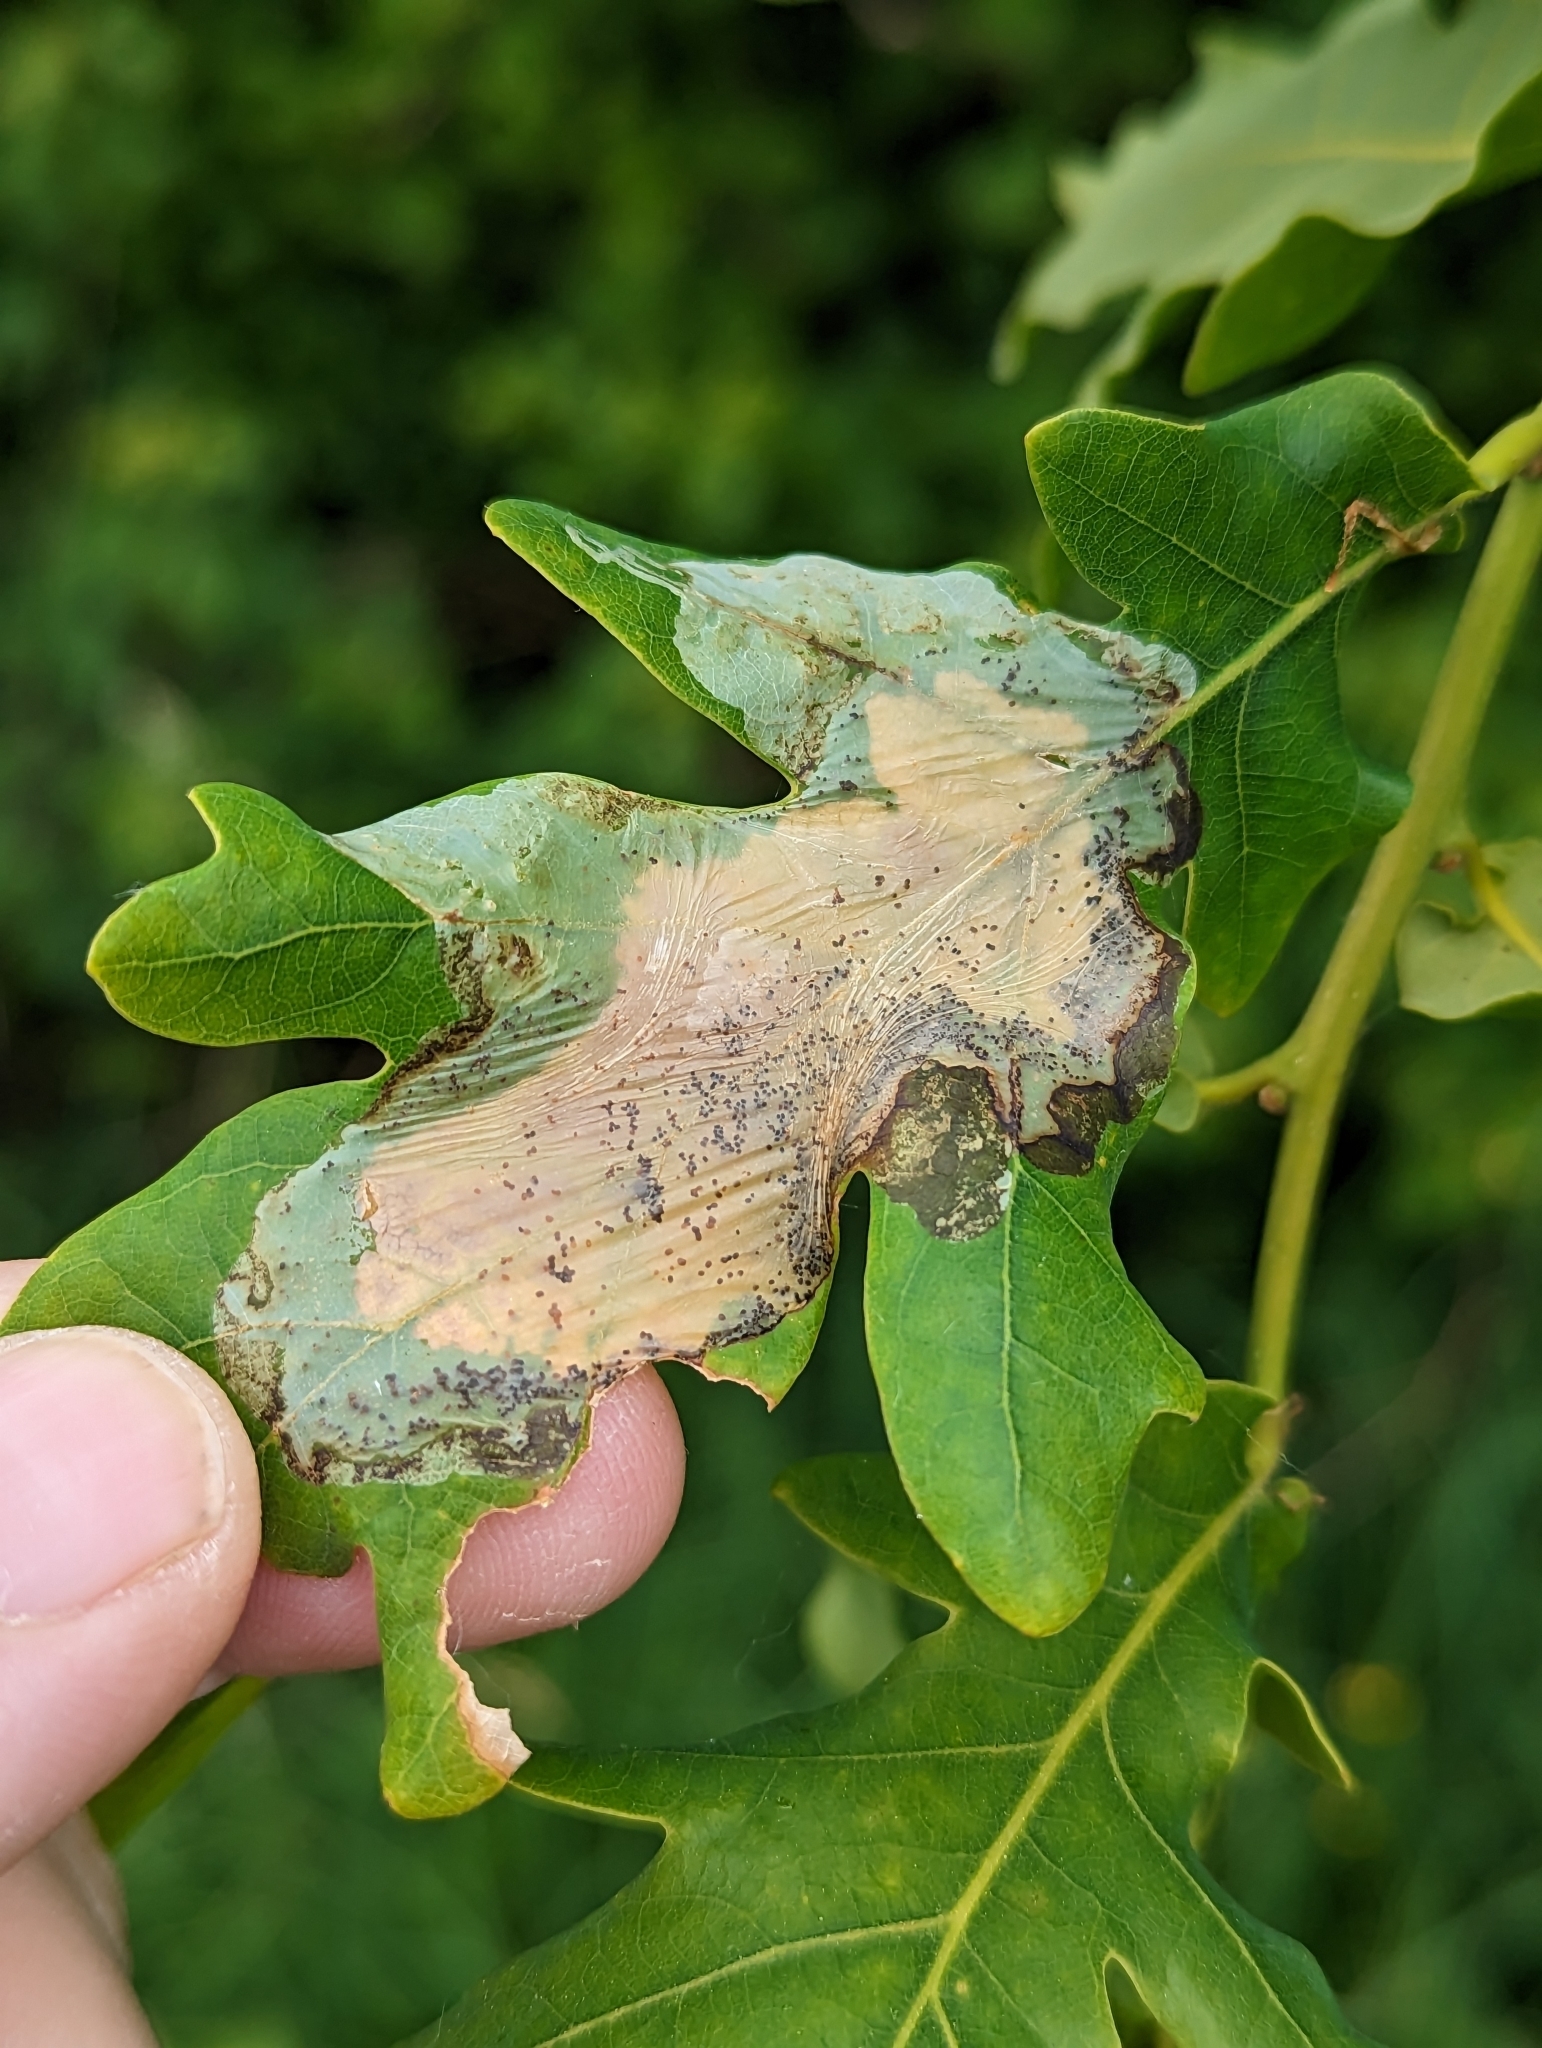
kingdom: Animalia
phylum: Arthropoda
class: Insecta
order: Lepidoptera
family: Gracillariidae
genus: Acrocercops
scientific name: Acrocercops brongniardella
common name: Brown oak slender
